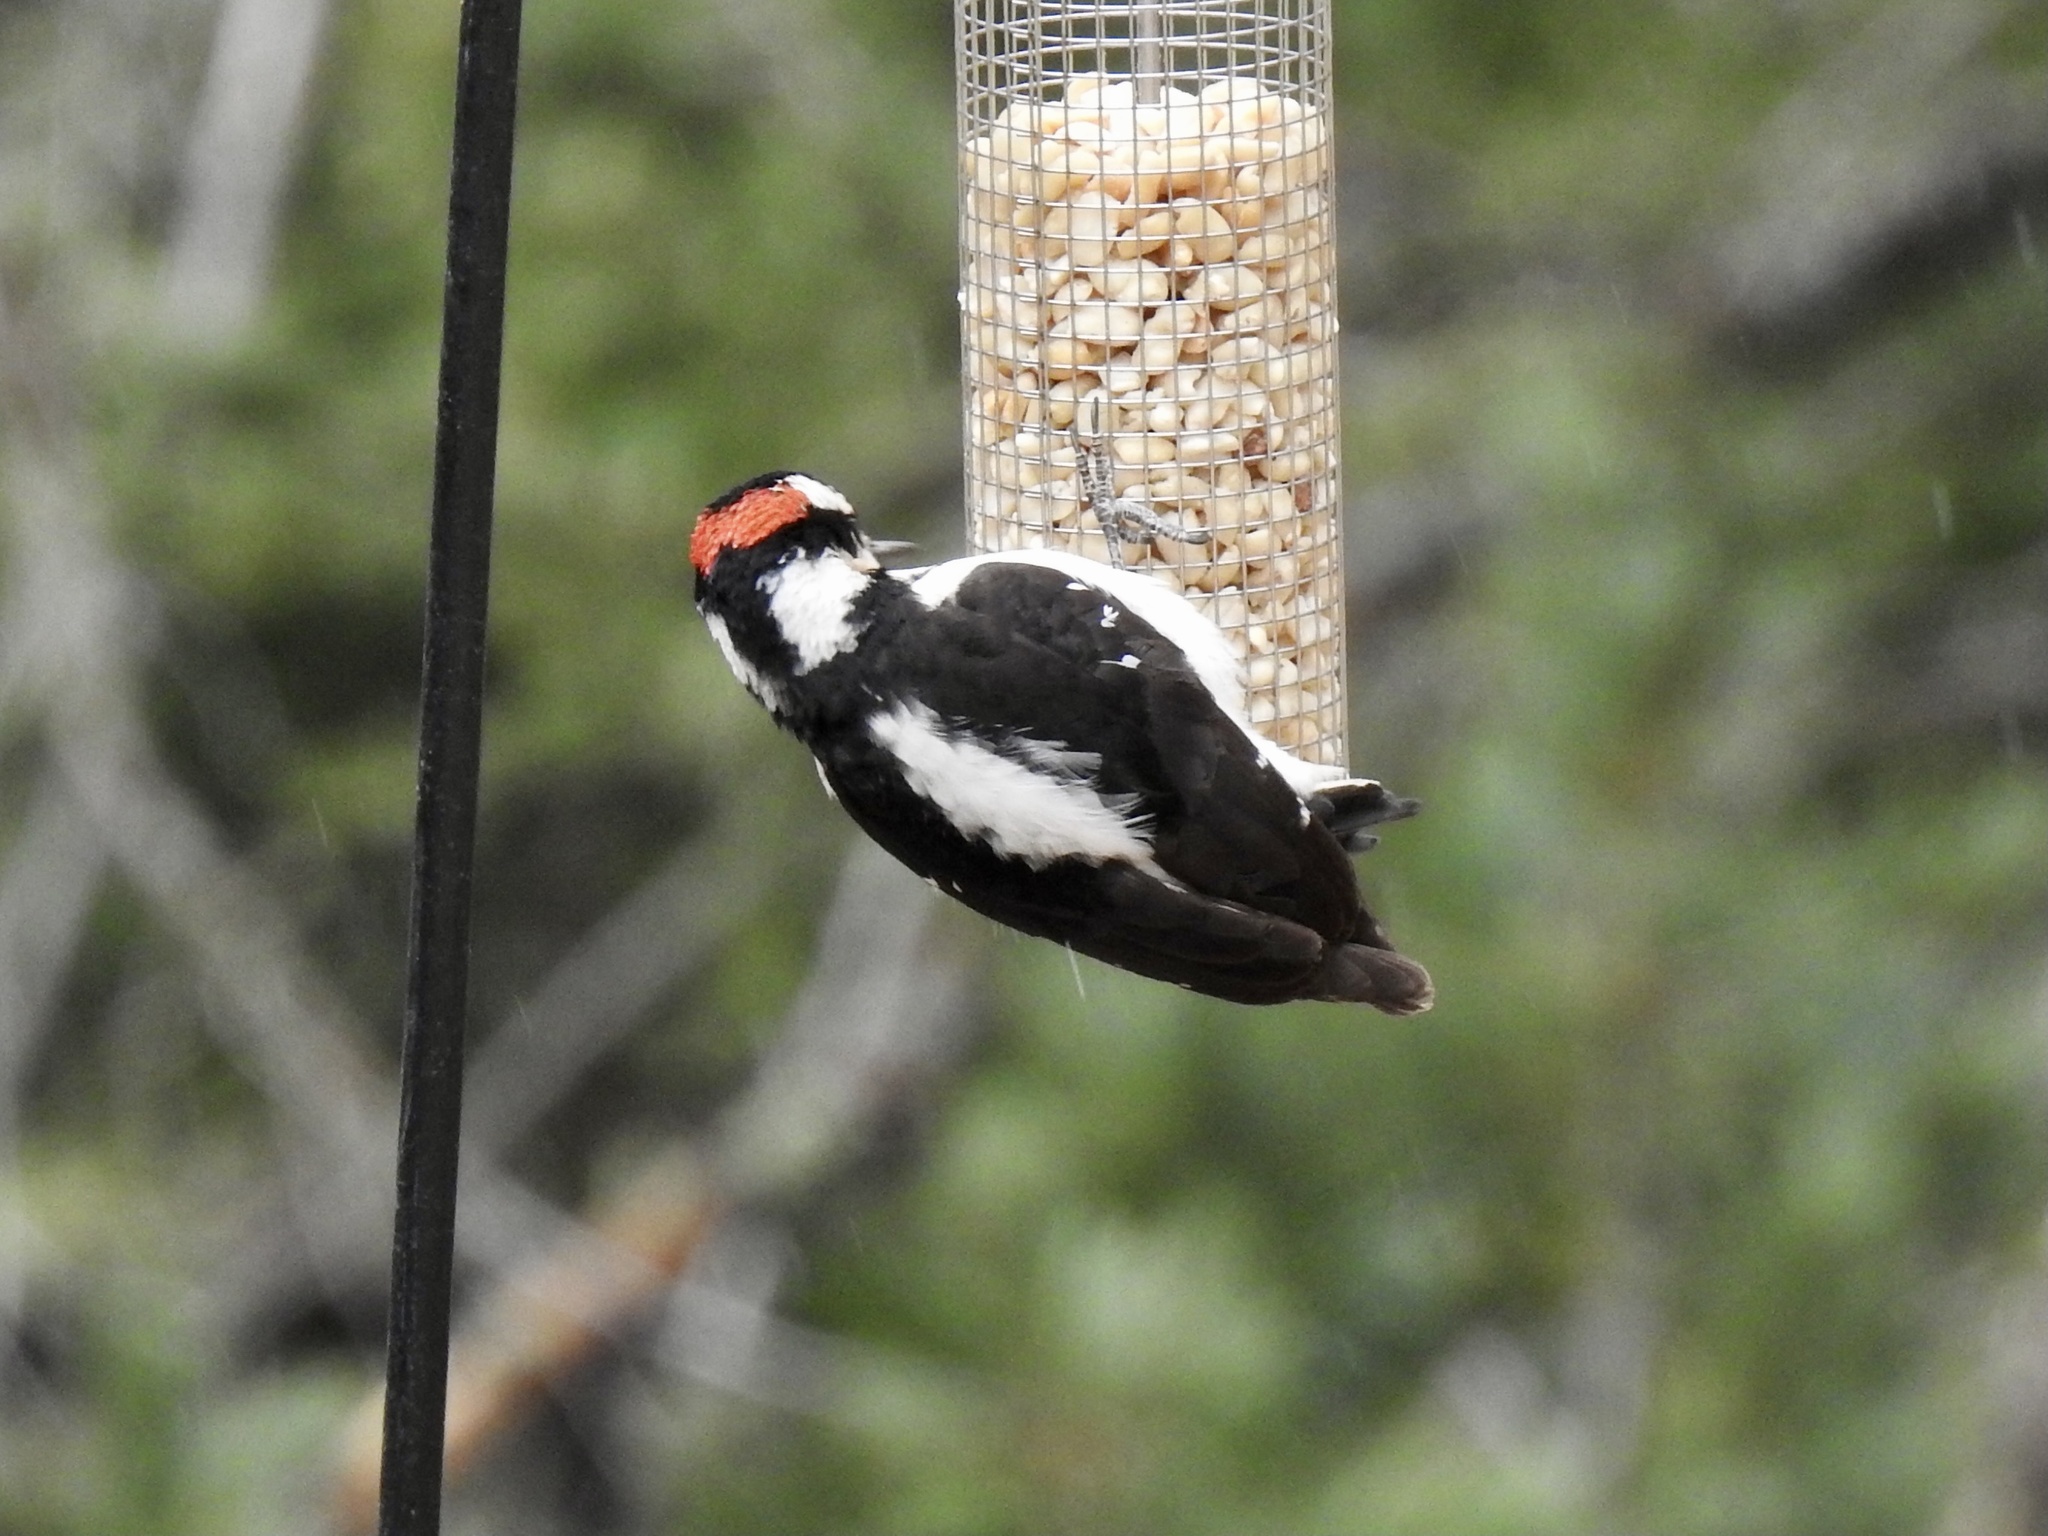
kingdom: Animalia
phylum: Chordata
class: Aves
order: Piciformes
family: Picidae
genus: Leuconotopicus
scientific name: Leuconotopicus villosus
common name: Hairy woodpecker
